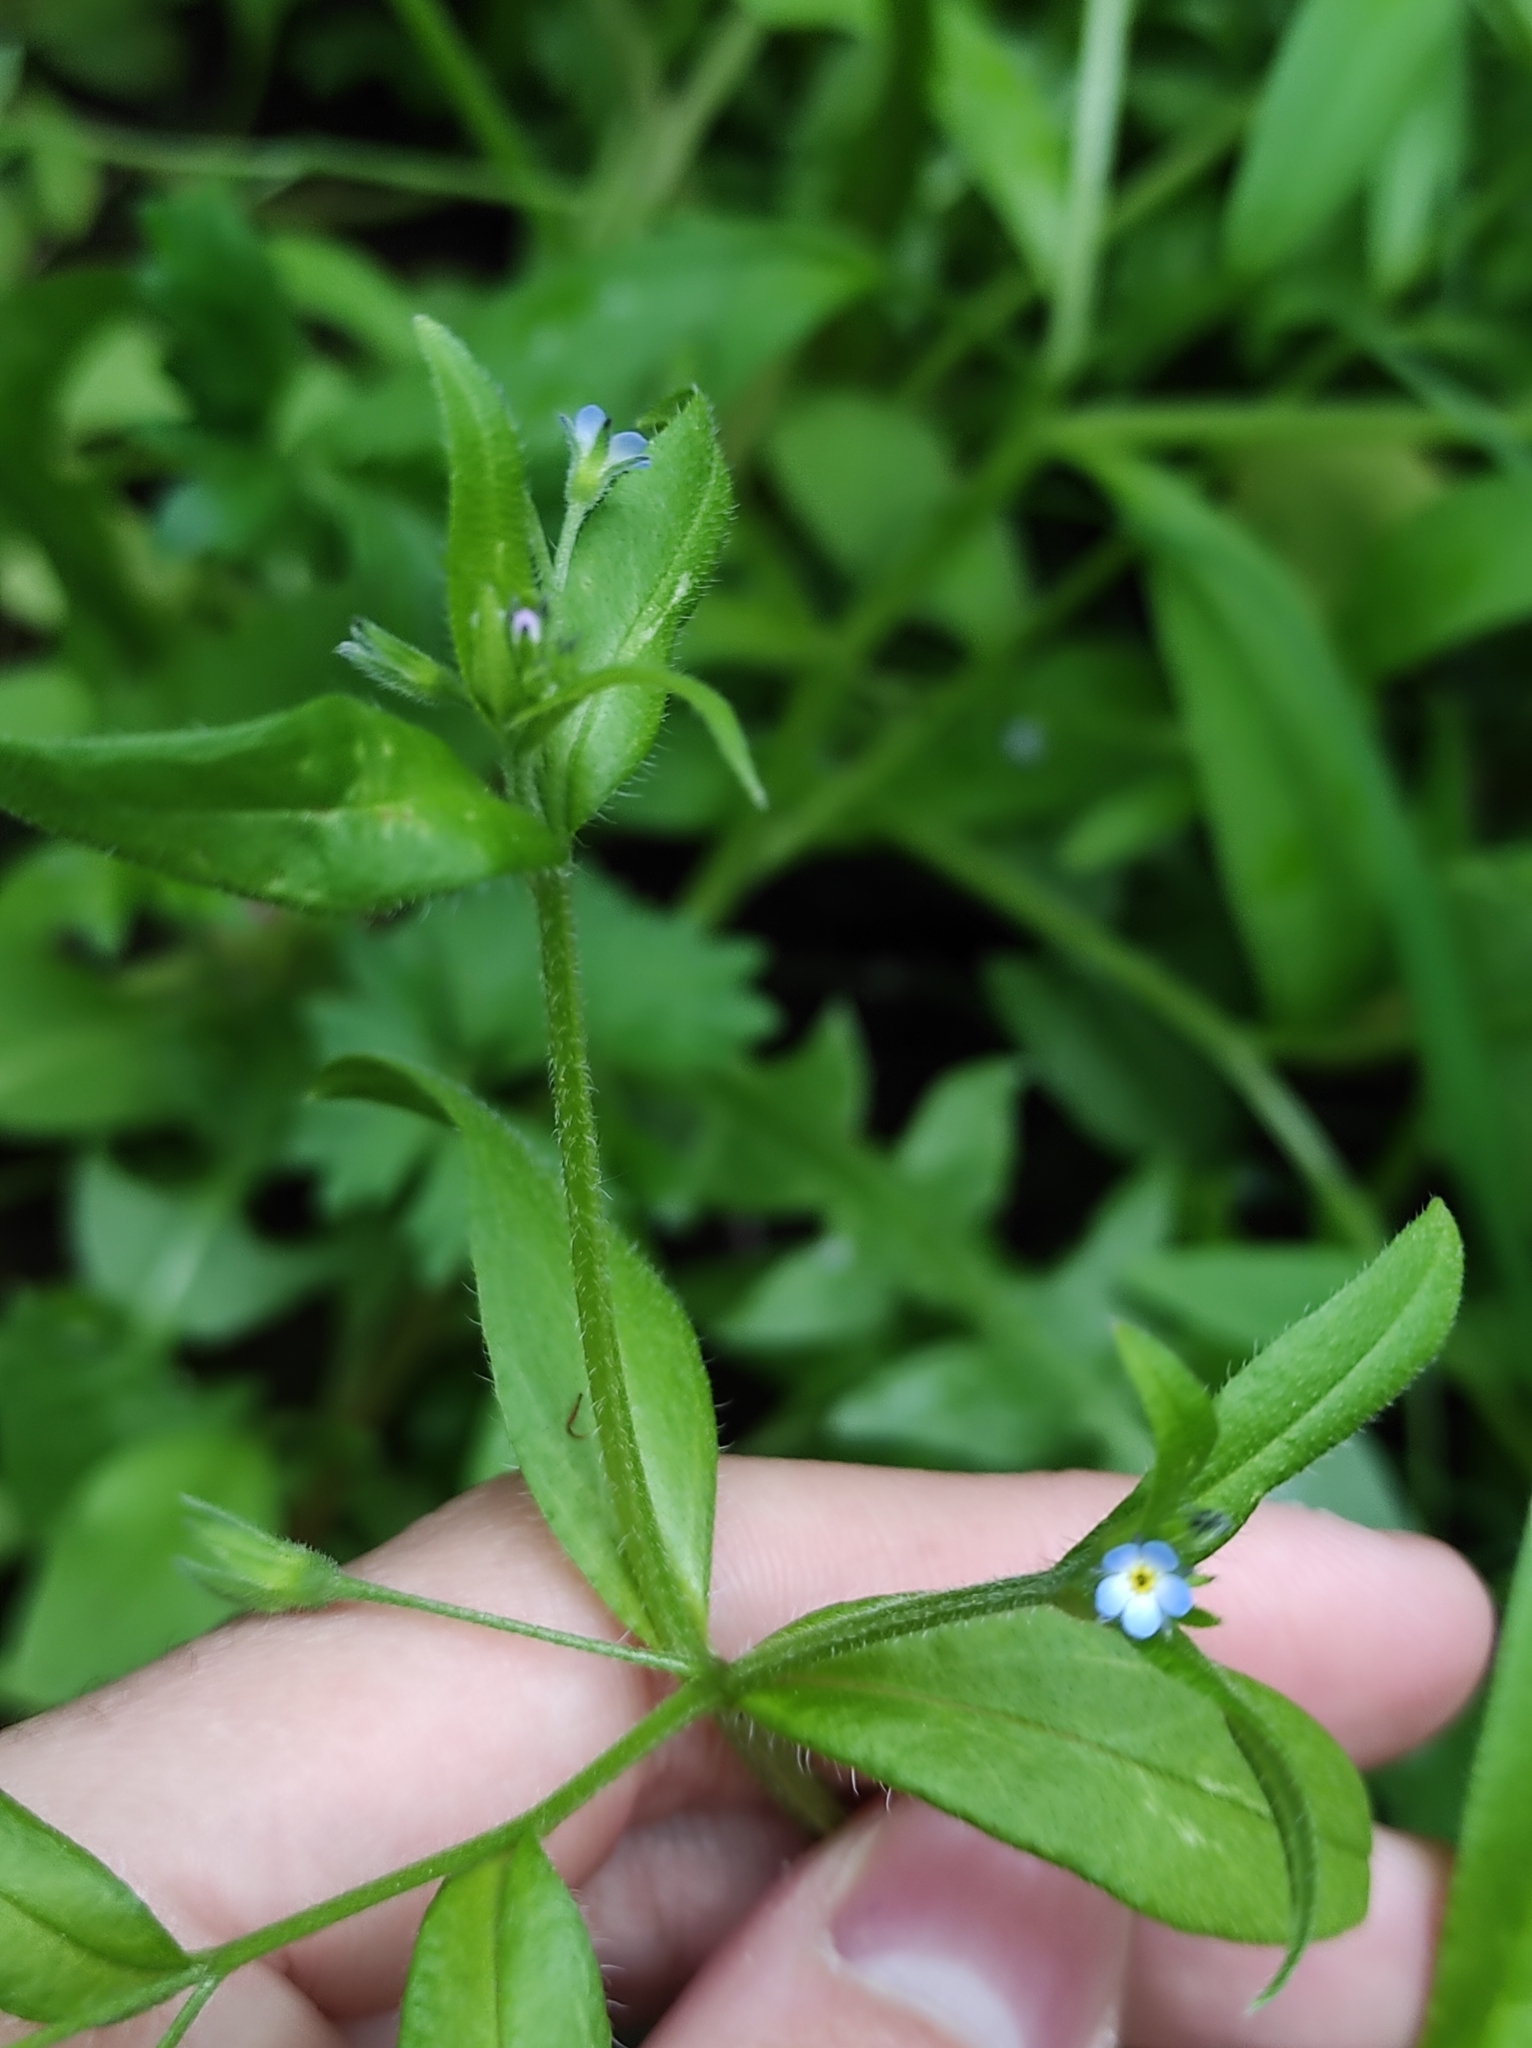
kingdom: Plantae
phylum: Tracheophyta
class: Magnoliopsida
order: Boraginales
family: Boraginaceae
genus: Myosotis
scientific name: Myosotis sparsiflora
